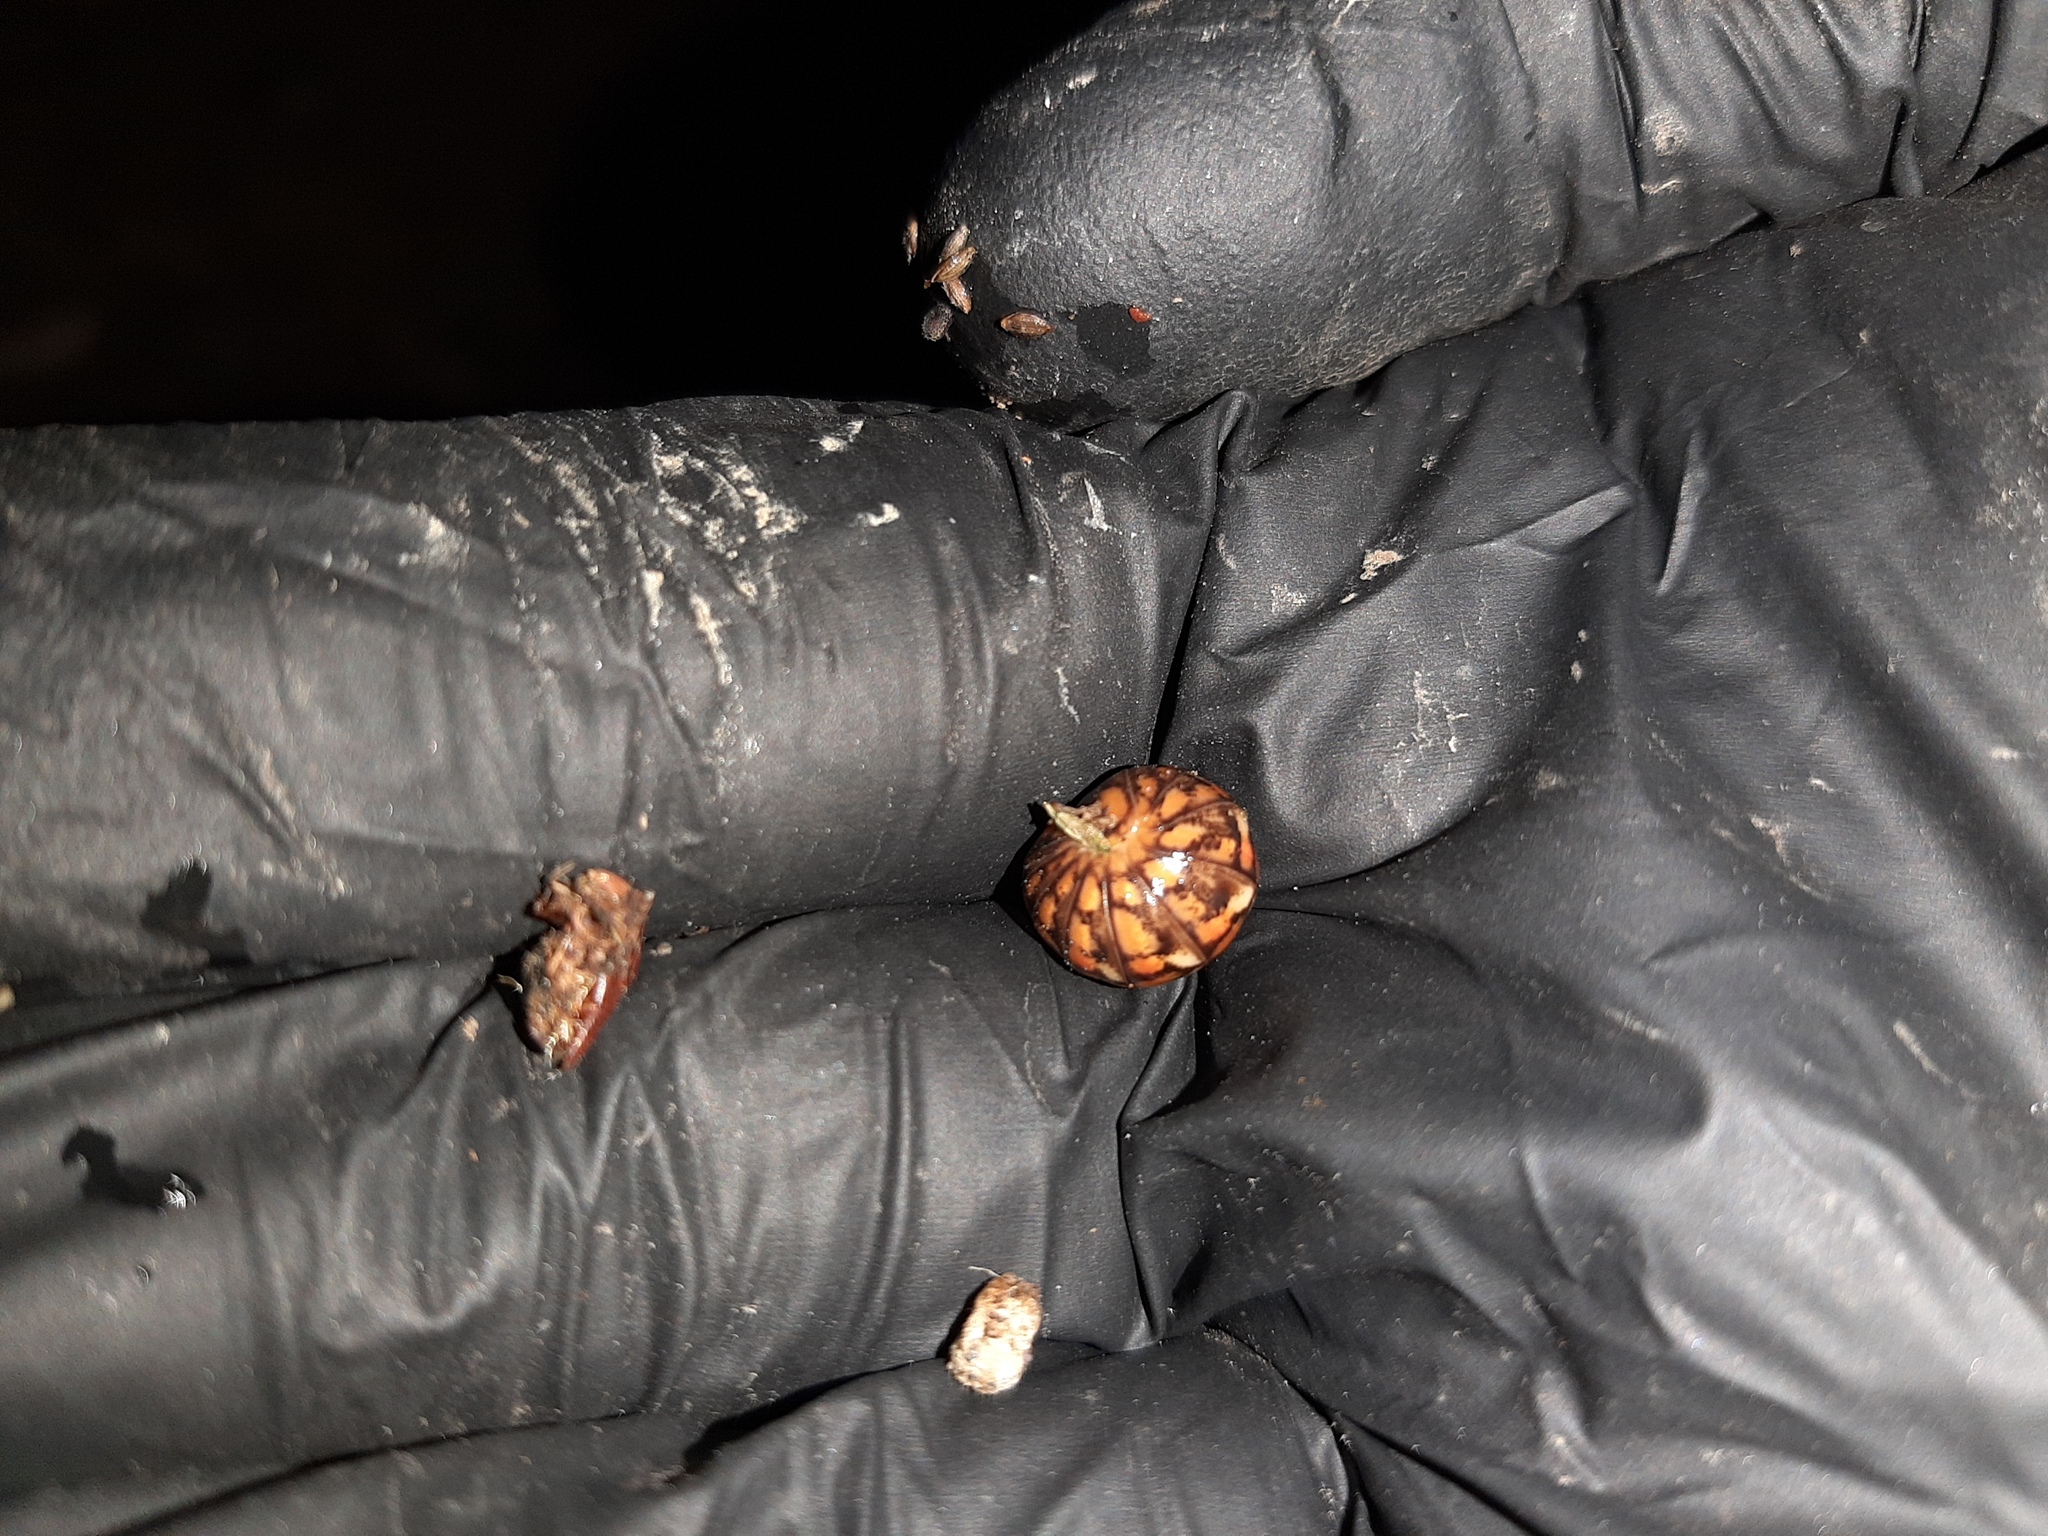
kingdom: Animalia
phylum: Arthropoda
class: Diplopoda
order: Glomerida
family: Glomeridae
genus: Glomeris
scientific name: Glomeris klugii
